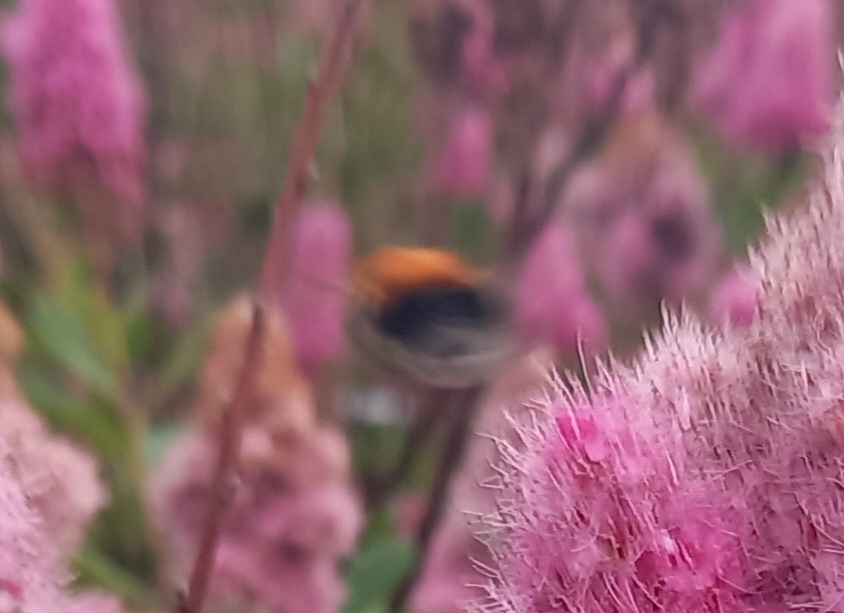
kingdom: Animalia
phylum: Arthropoda
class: Insecta
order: Hymenoptera
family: Apidae
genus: Bombus
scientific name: Bombus hypnorum
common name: New garden bumblebee
